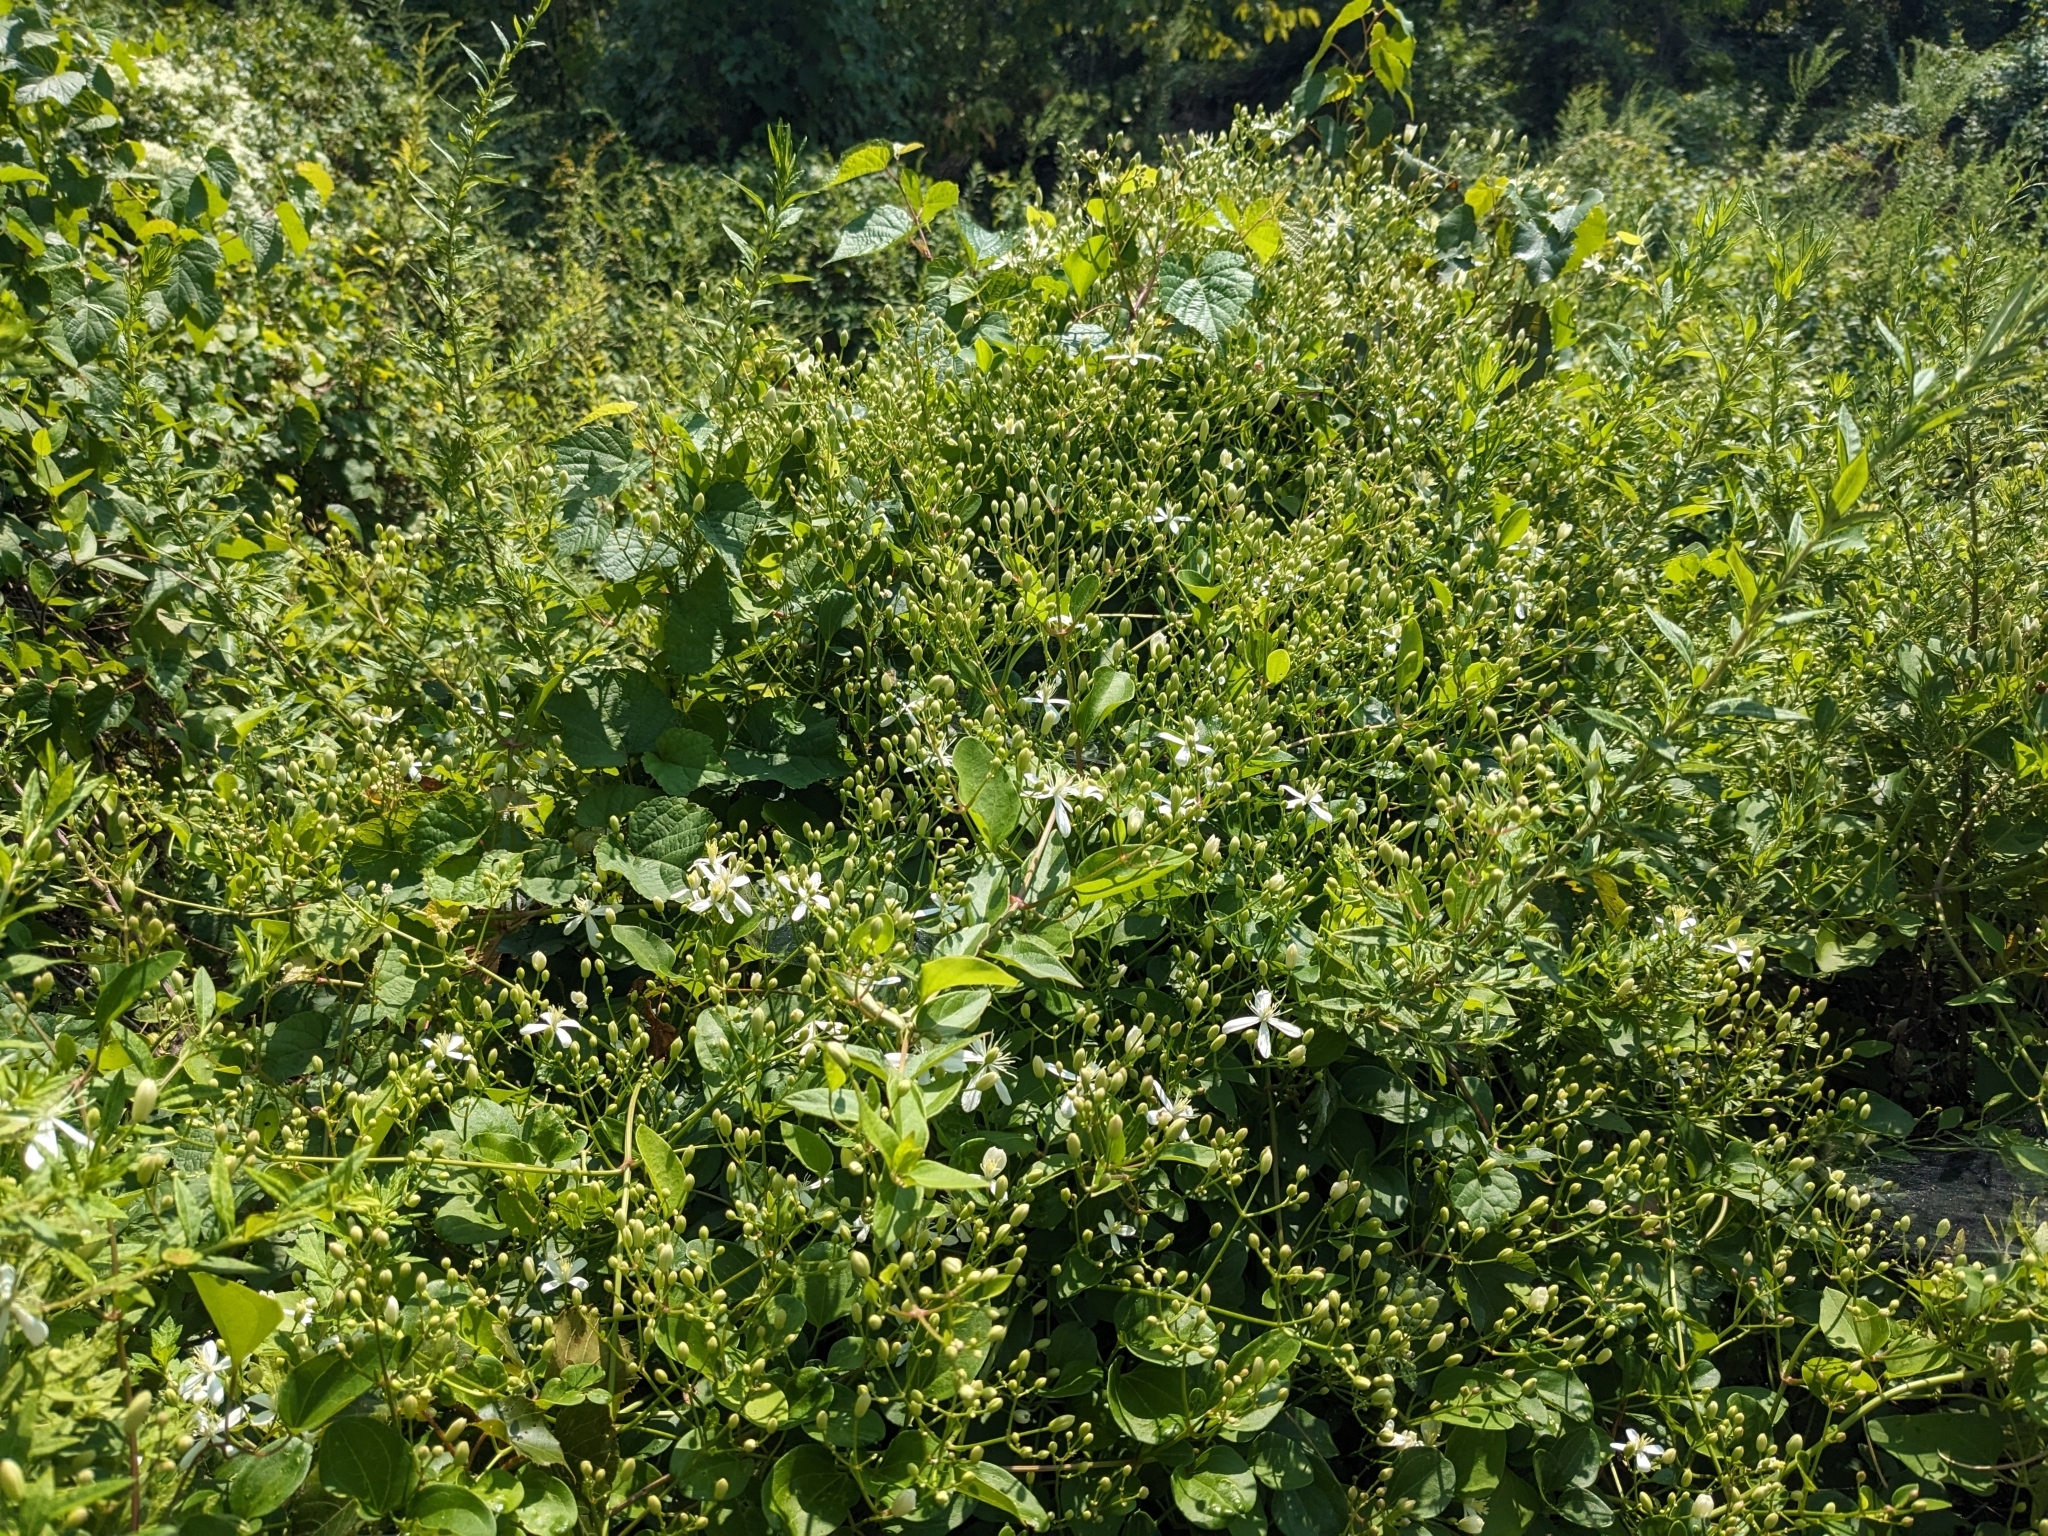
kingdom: Plantae
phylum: Tracheophyta
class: Magnoliopsida
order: Ranunculales
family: Ranunculaceae
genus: Clematis
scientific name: Clematis terniflora
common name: Sweet autumn clematis
